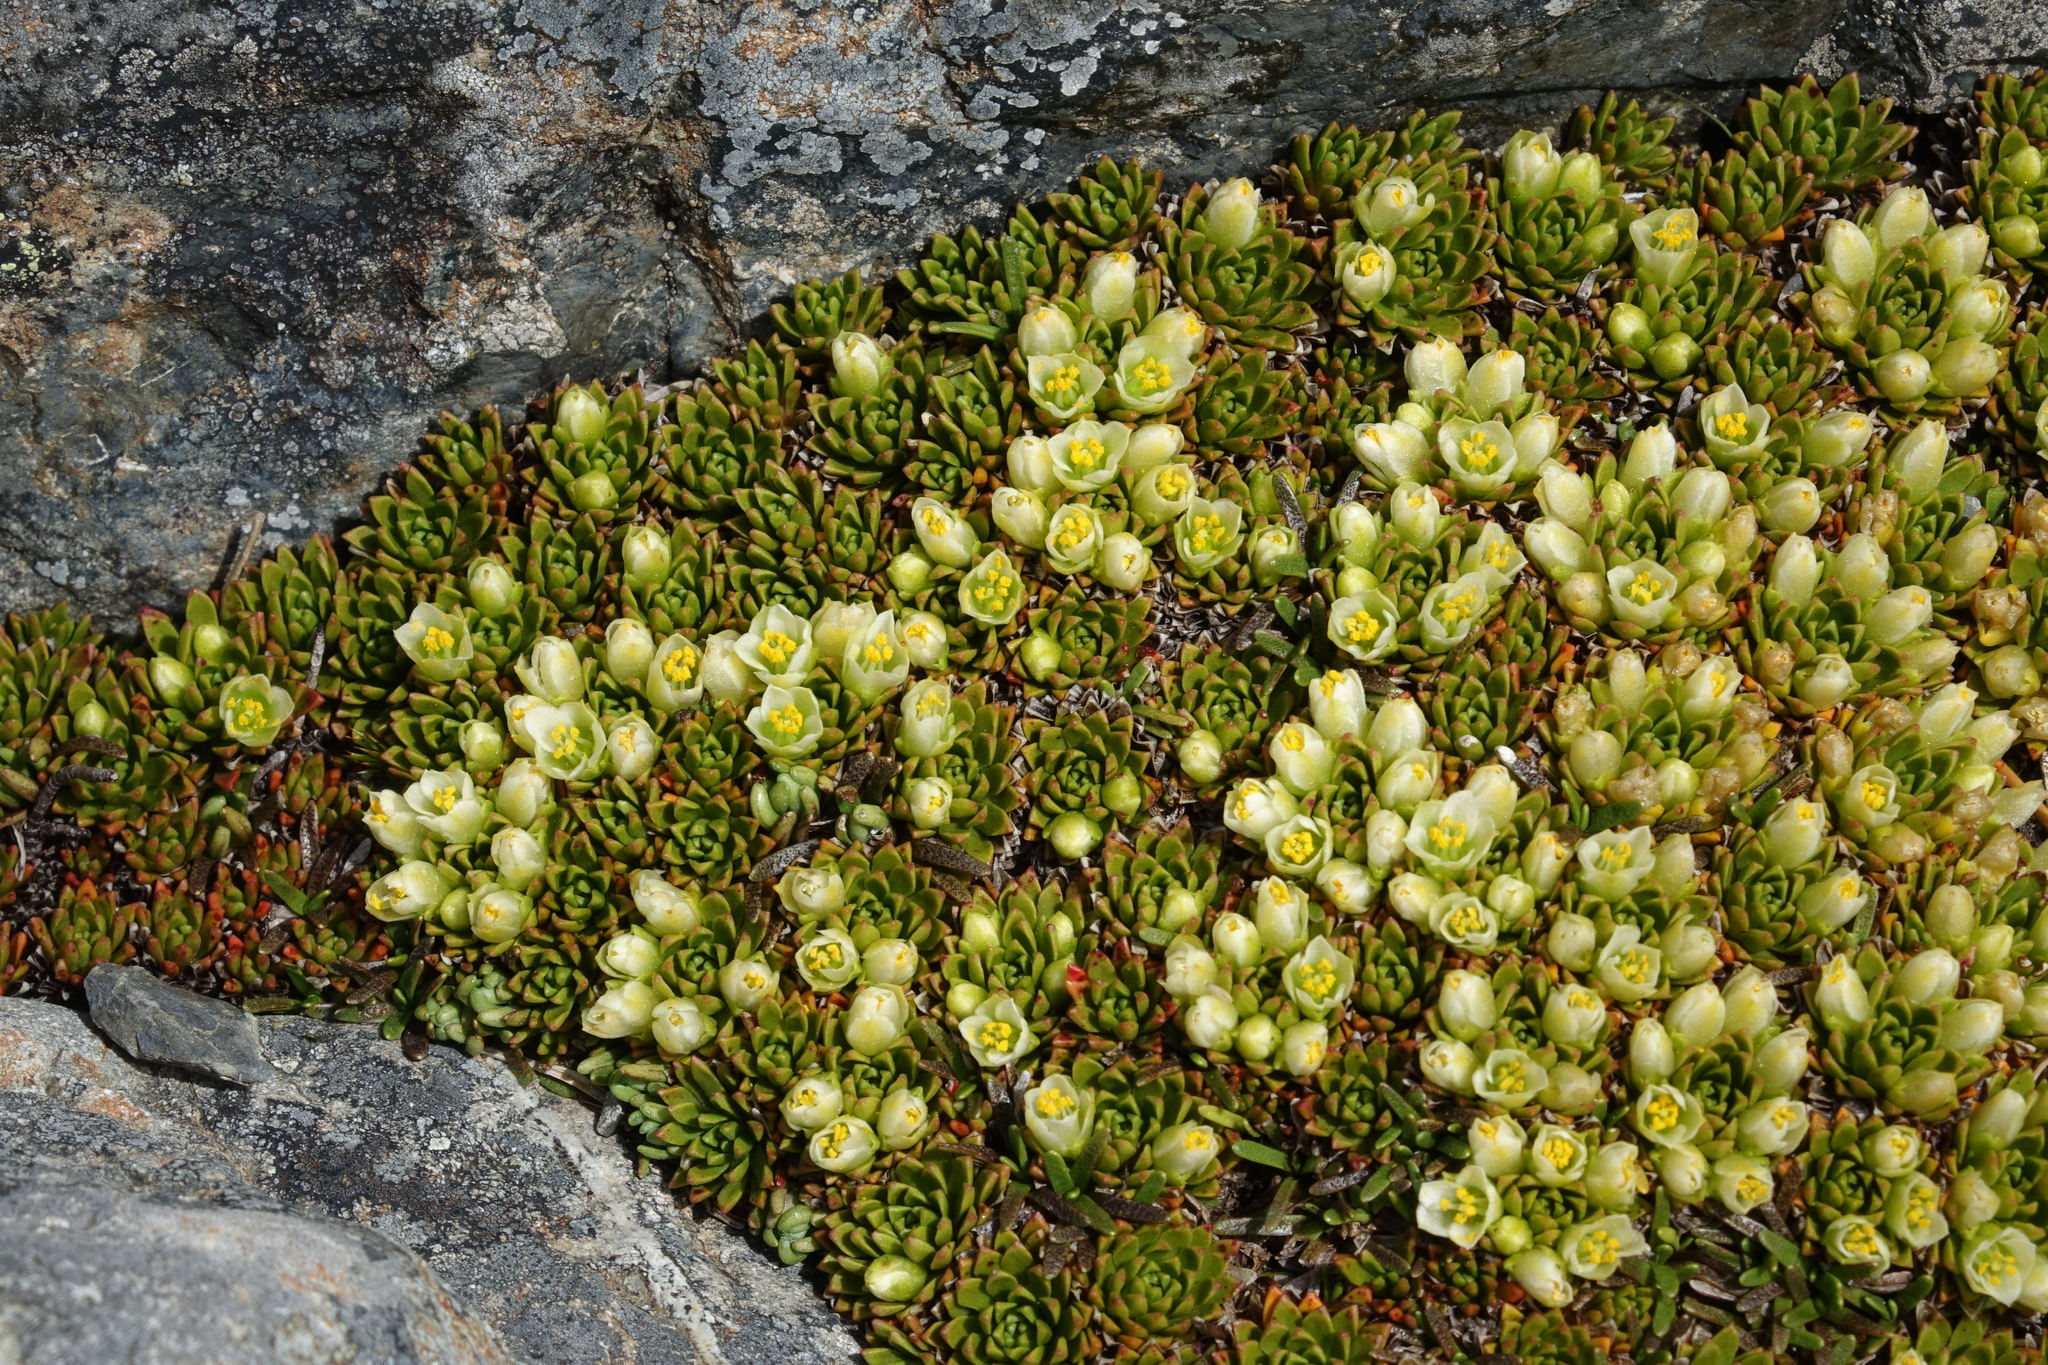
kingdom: Plantae
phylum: Tracheophyta
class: Magnoliopsida
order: Caryophyllales
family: Montiaceae
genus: Hectorella
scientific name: Hectorella caespitosa
